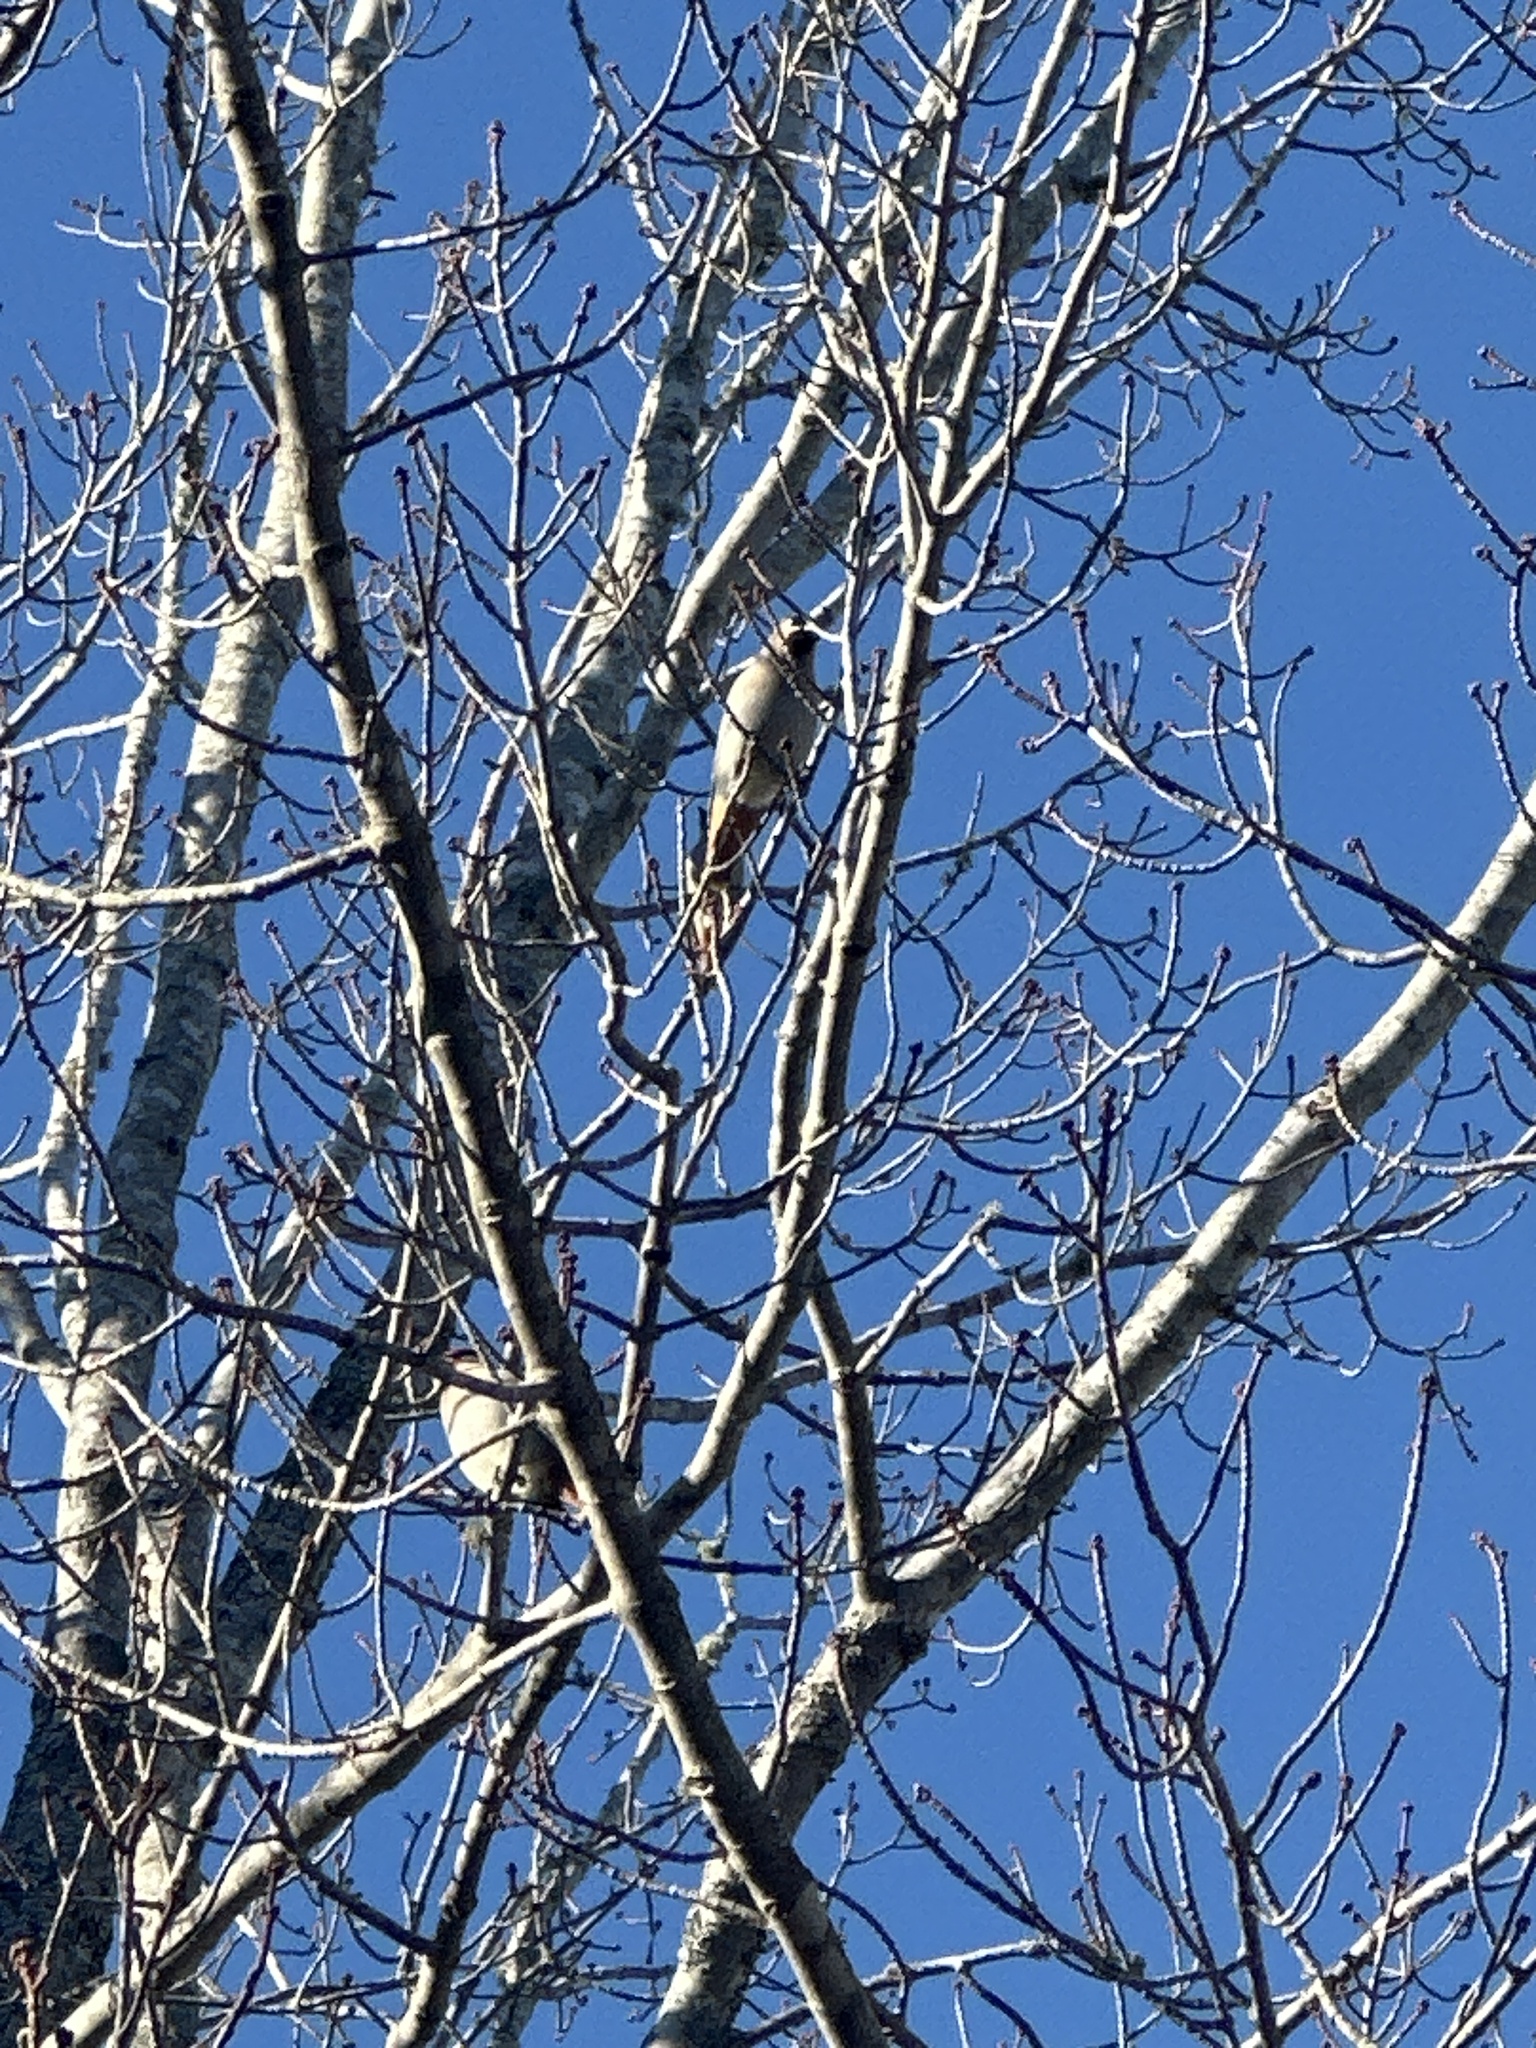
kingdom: Animalia
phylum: Chordata
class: Aves
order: Passeriformes
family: Bombycillidae
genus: Bombycilla
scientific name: Bombycilla garrulus
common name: Bohemian waxwing
